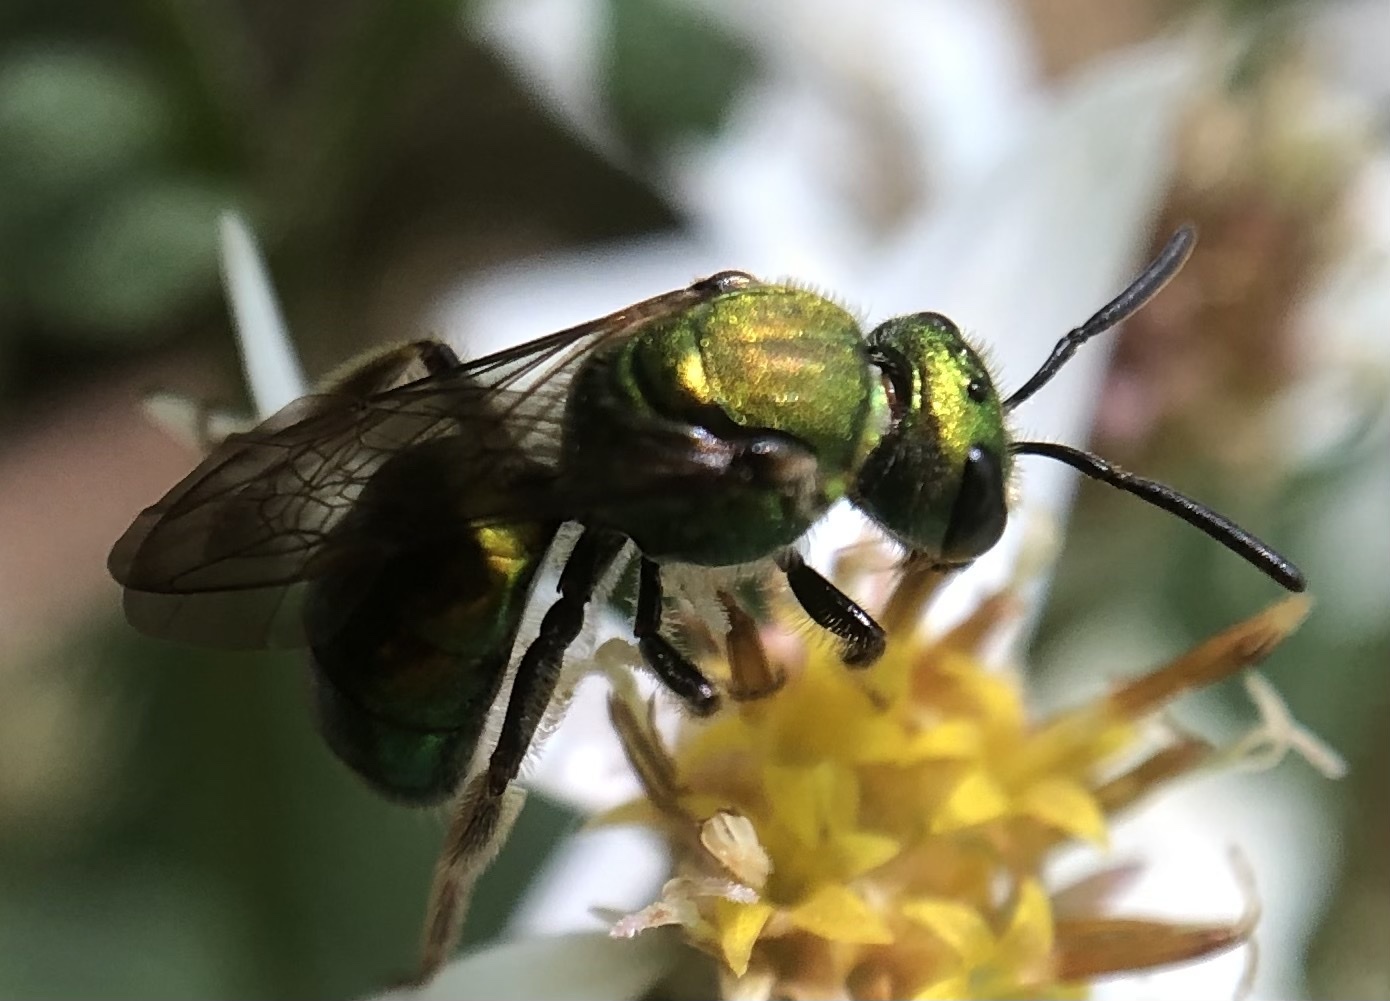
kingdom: Animalia
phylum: Arthropoda
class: Insecta
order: Hymenoptera
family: Halictidae
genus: Augochlora
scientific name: Augochlora pura
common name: Pure green sweat bee
